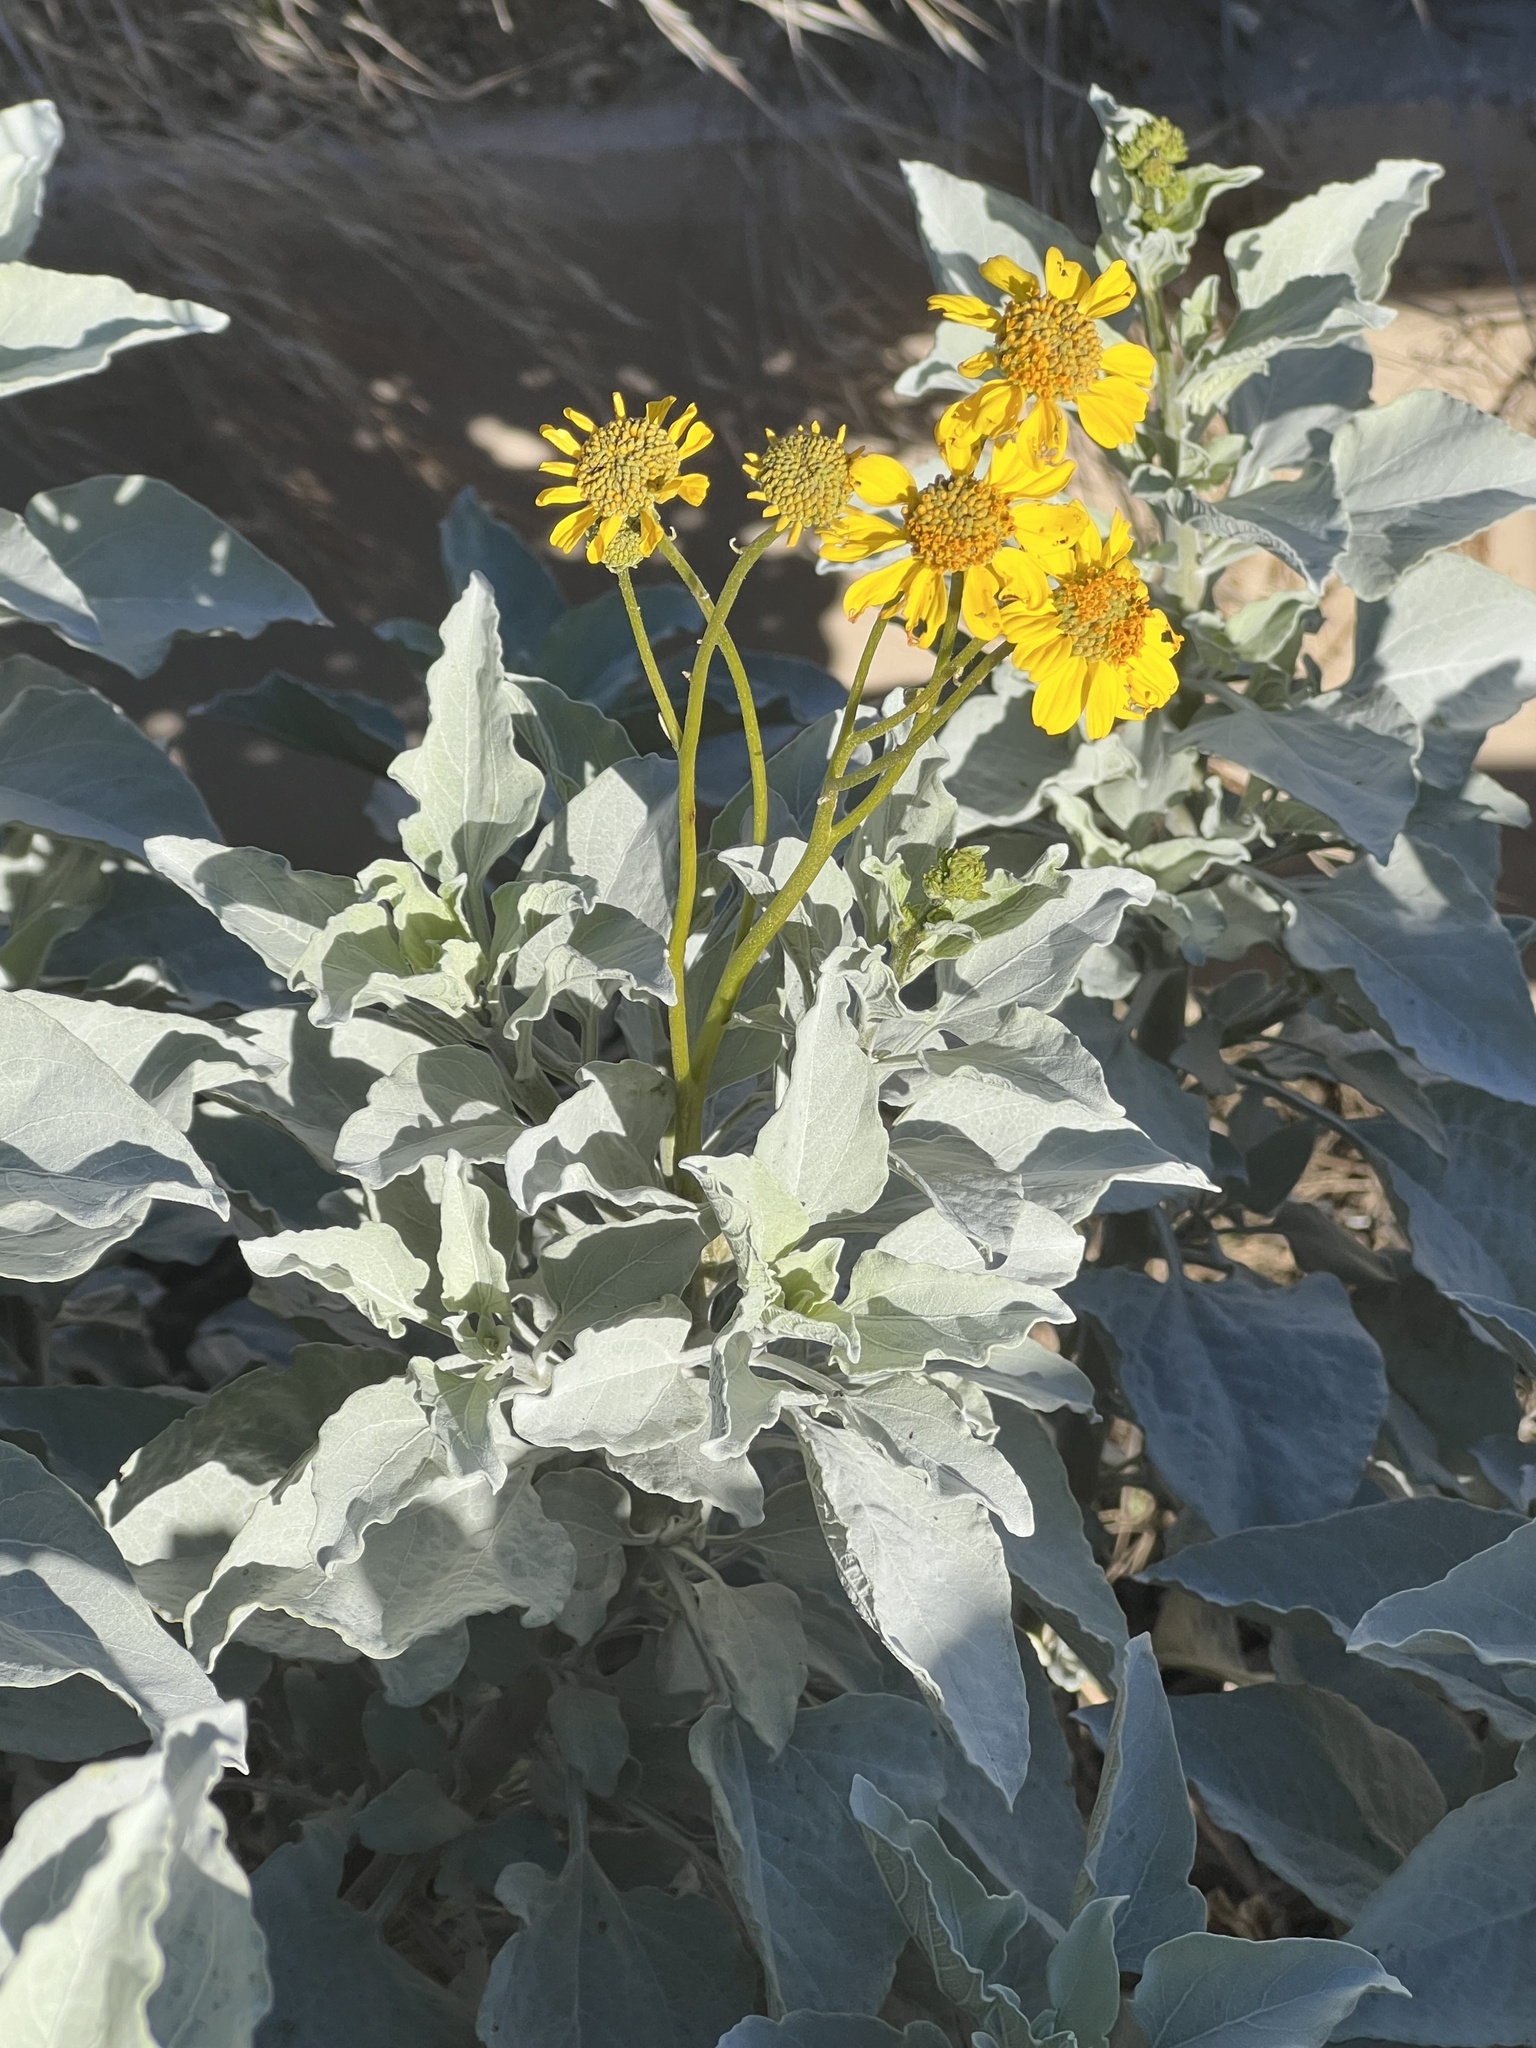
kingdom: Plantae
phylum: Tracheophyta
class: Magnoliopsida
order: Asterales
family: Asteraceae
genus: Encelia
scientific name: Encelia farinosa
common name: Brittlebush
